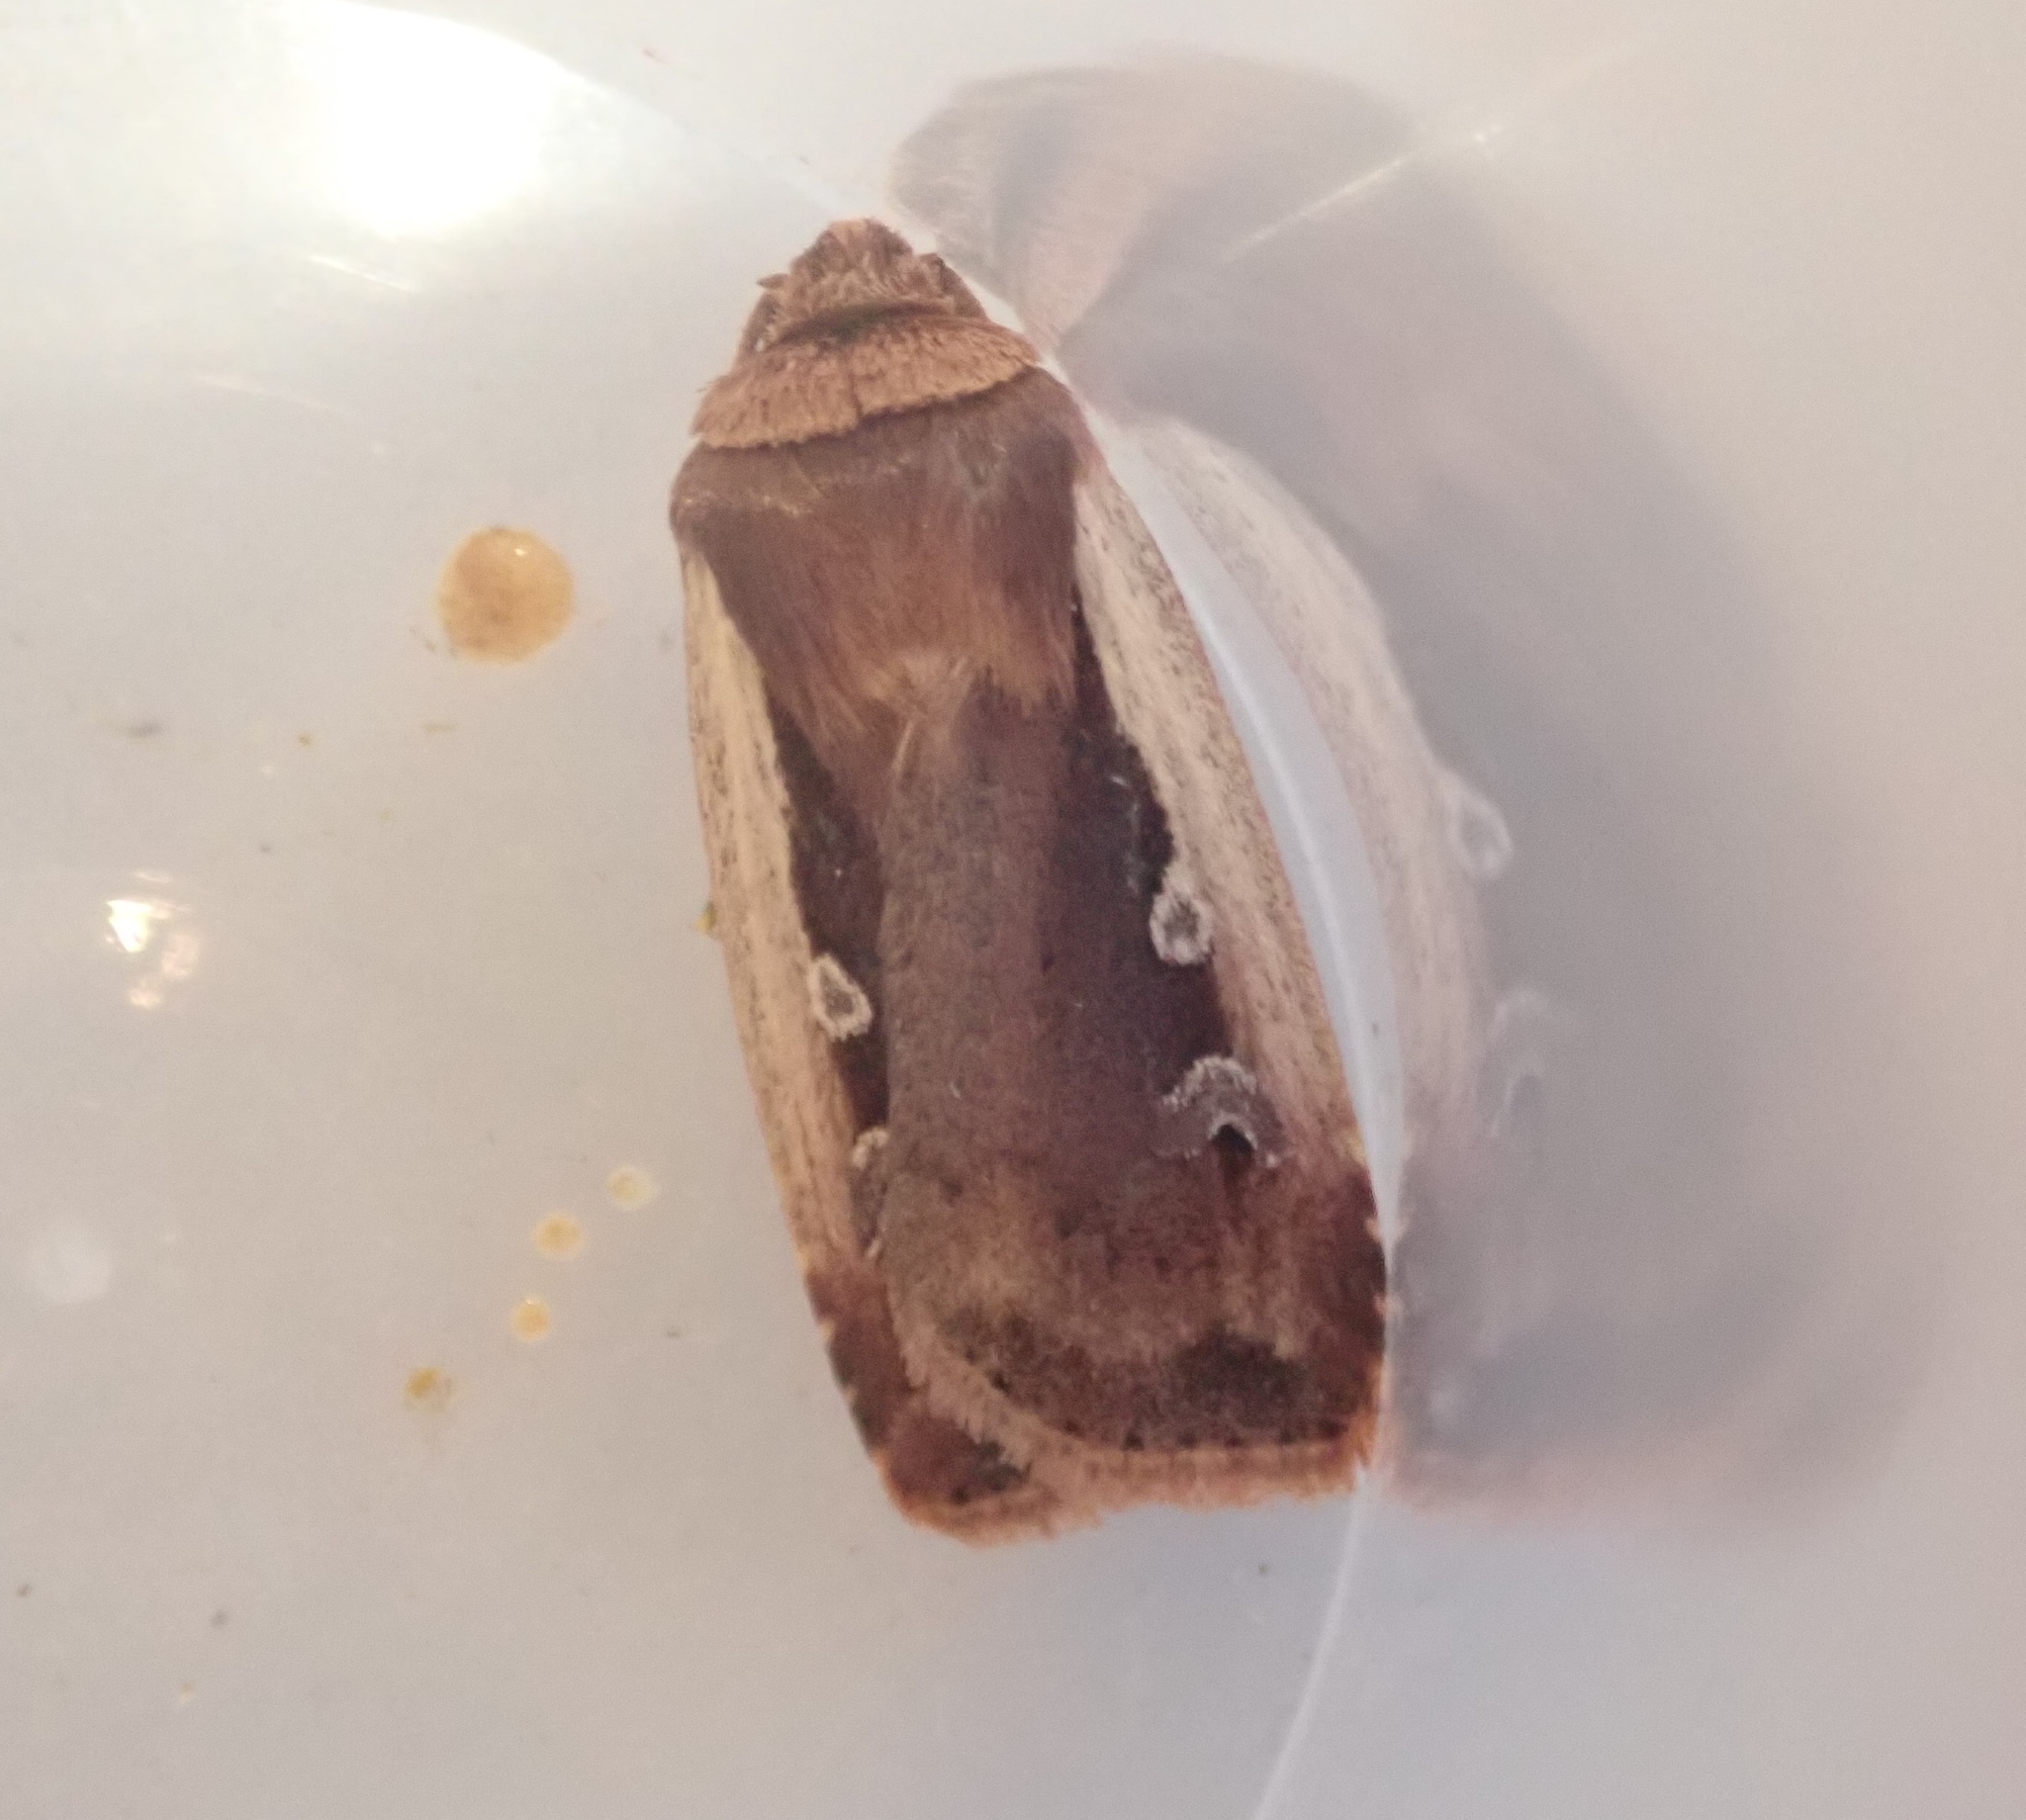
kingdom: Animalia
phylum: Arthropoda
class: Insecta
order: Lepidoptera
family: Noctuidae
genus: Ochropleura
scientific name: Ochropleura plecta
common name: Flame shoulder
